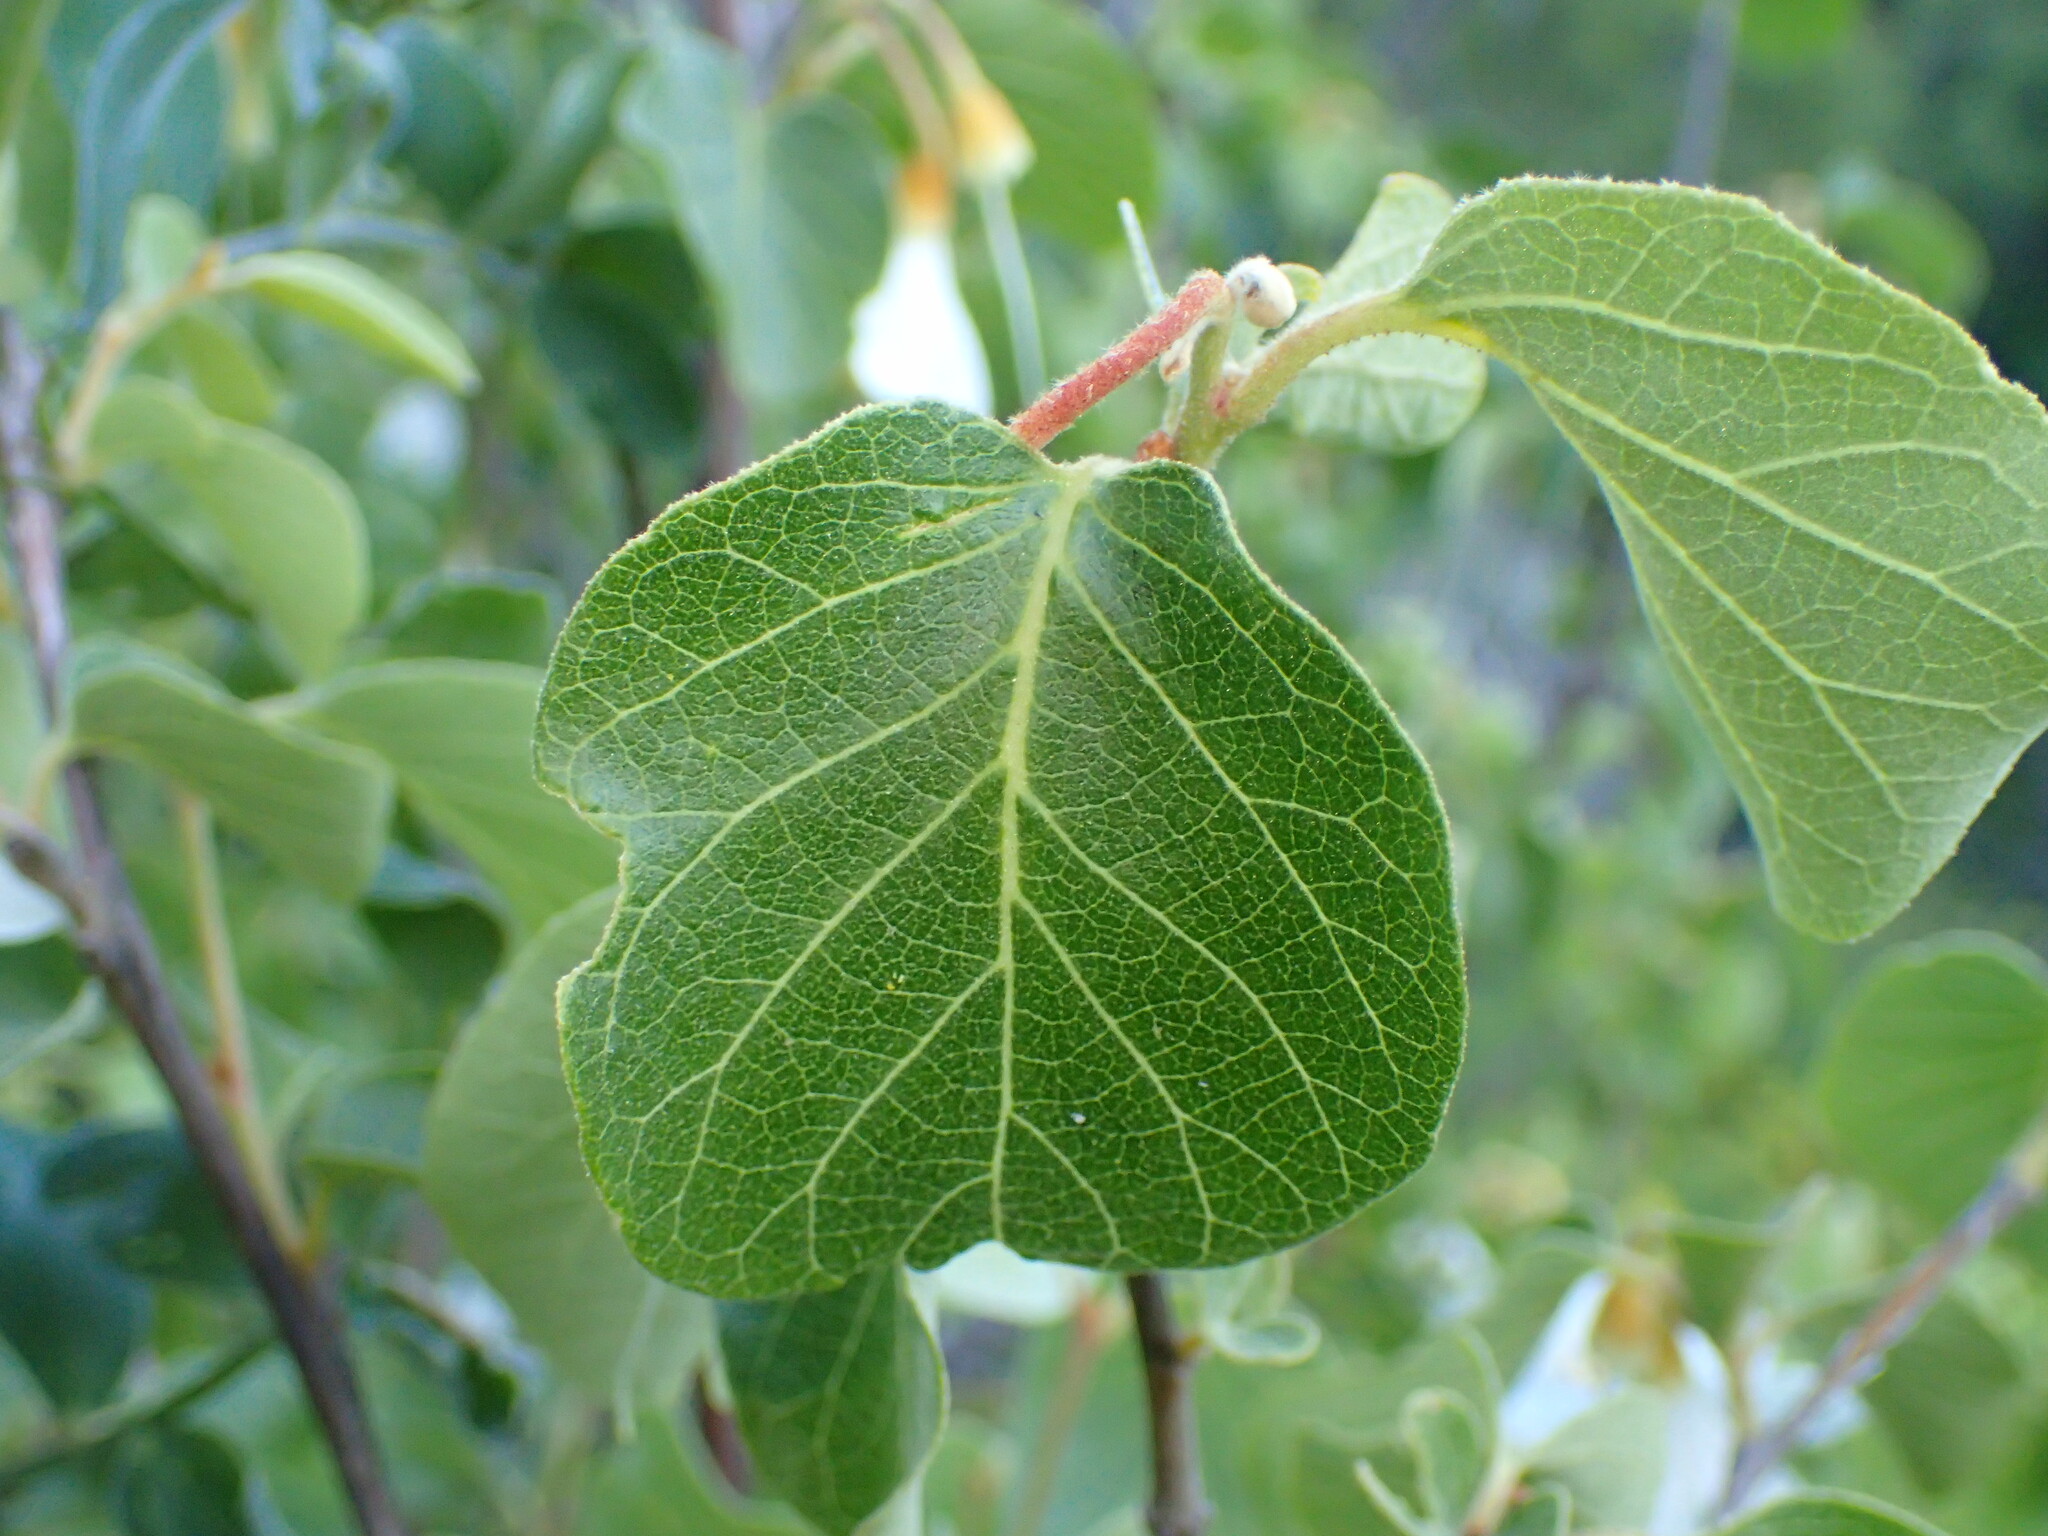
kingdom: Plantae
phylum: Tracheophyta
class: Magnoliopsida
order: Ericales
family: Styracaceae
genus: Styrax
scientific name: Styrax redivivus
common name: California styrax
